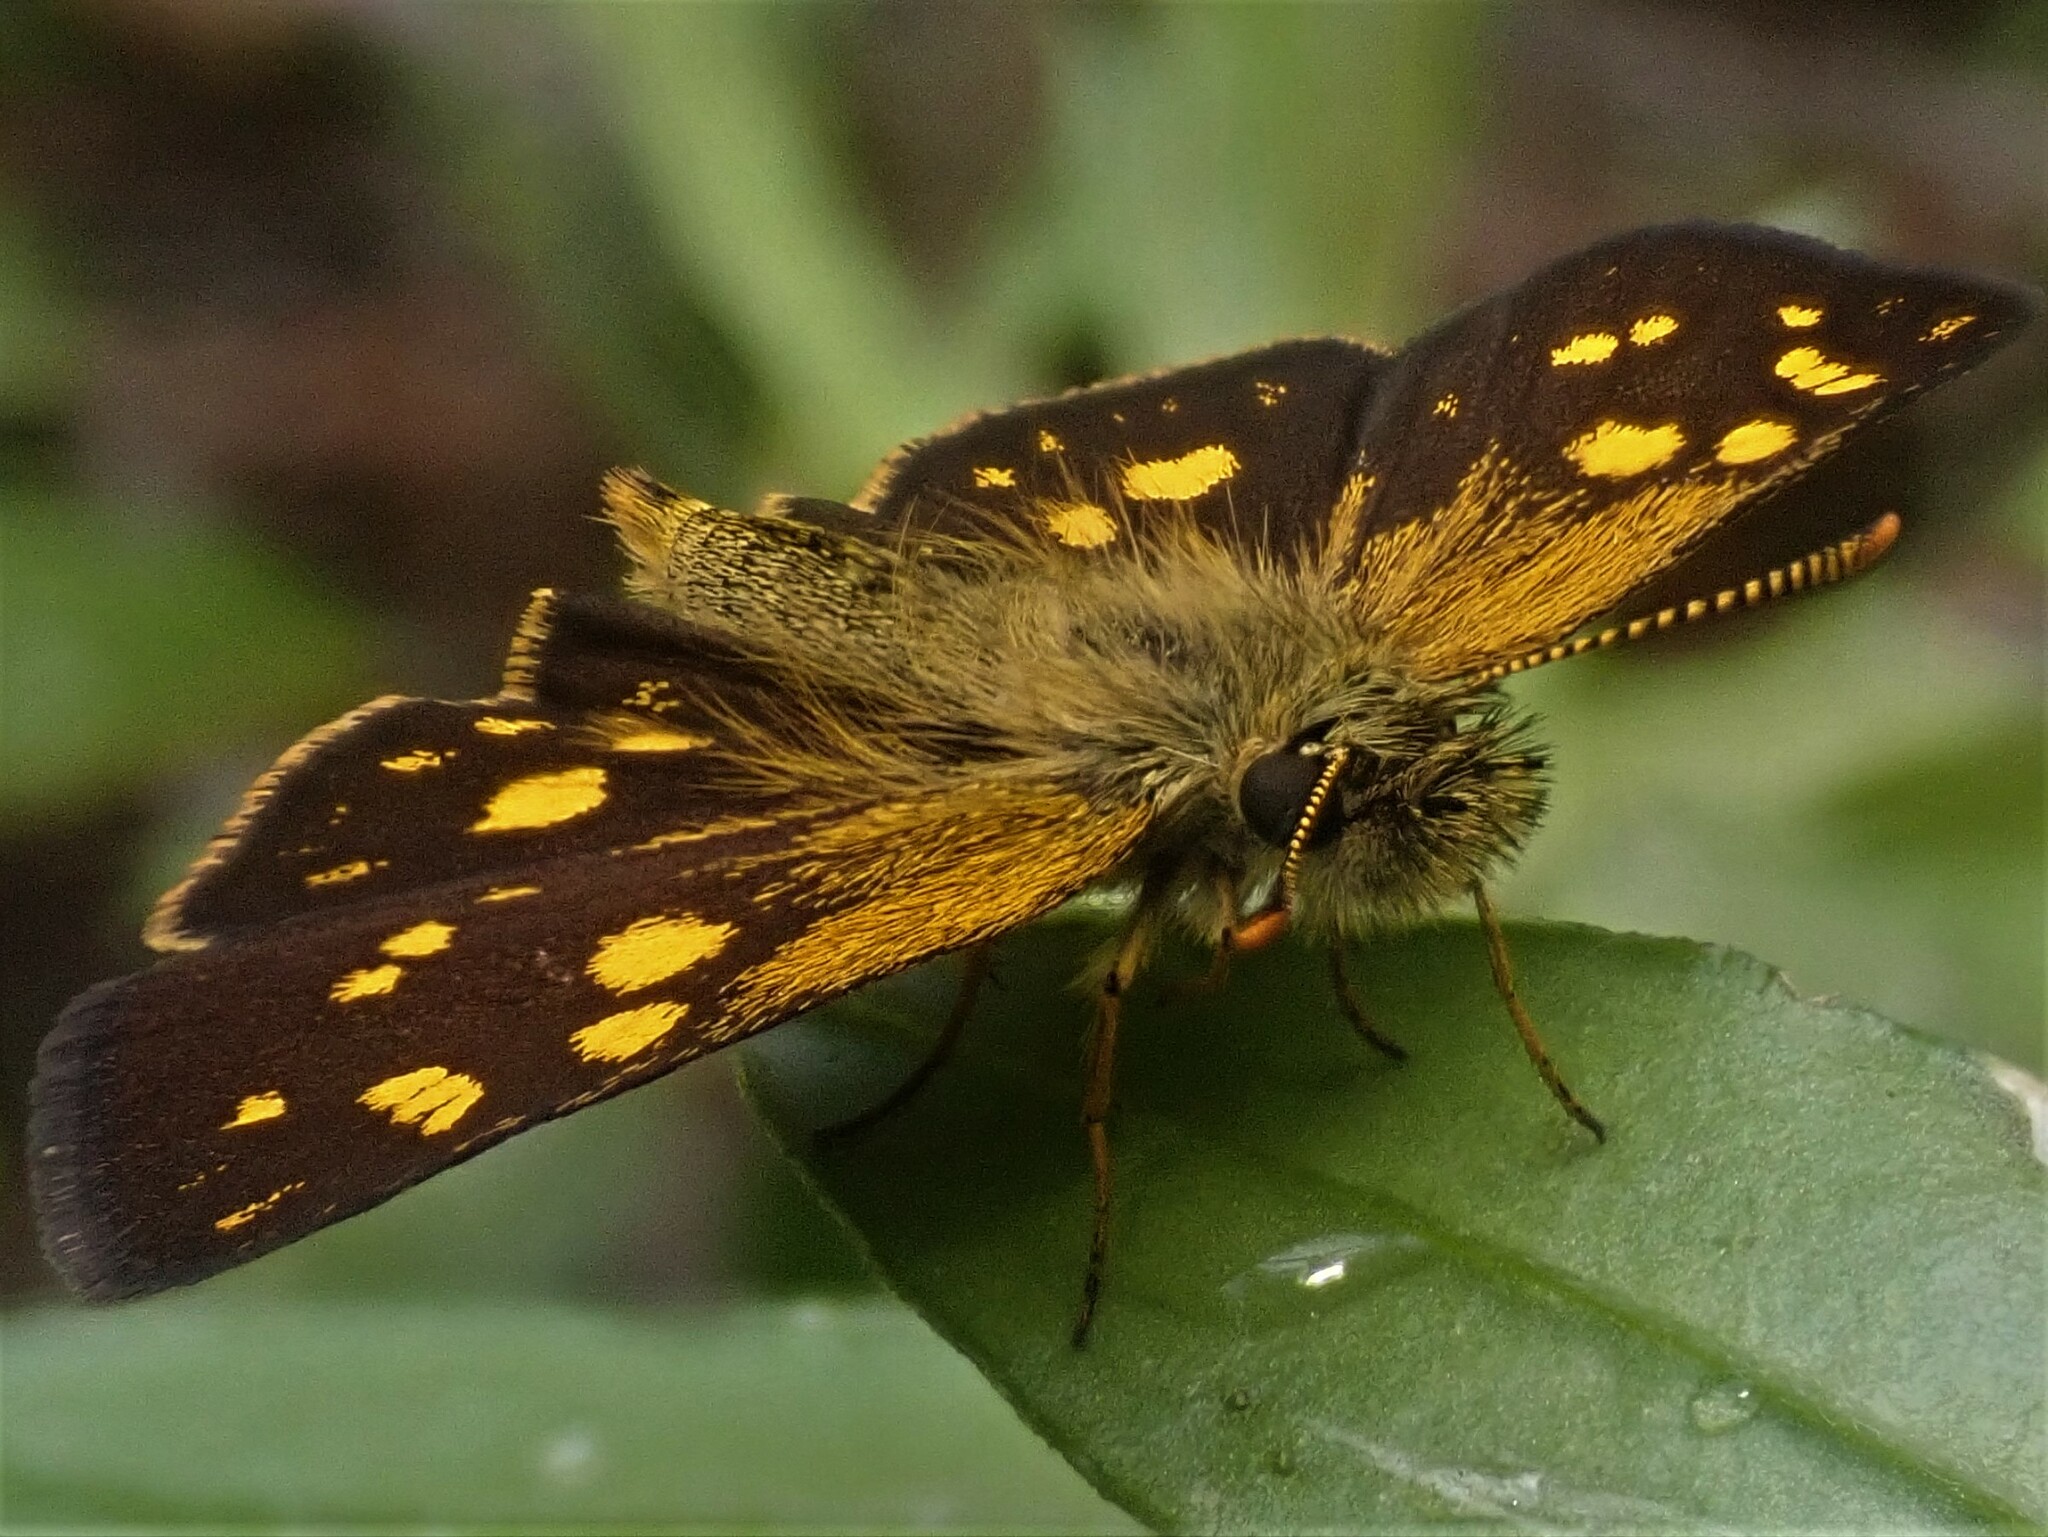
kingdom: Animalia
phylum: Arthropoda
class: Insecta
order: Lepidoptera
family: Hesperiidae
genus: Metisella
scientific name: Metisella metis
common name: Western gold-spotted sylph
